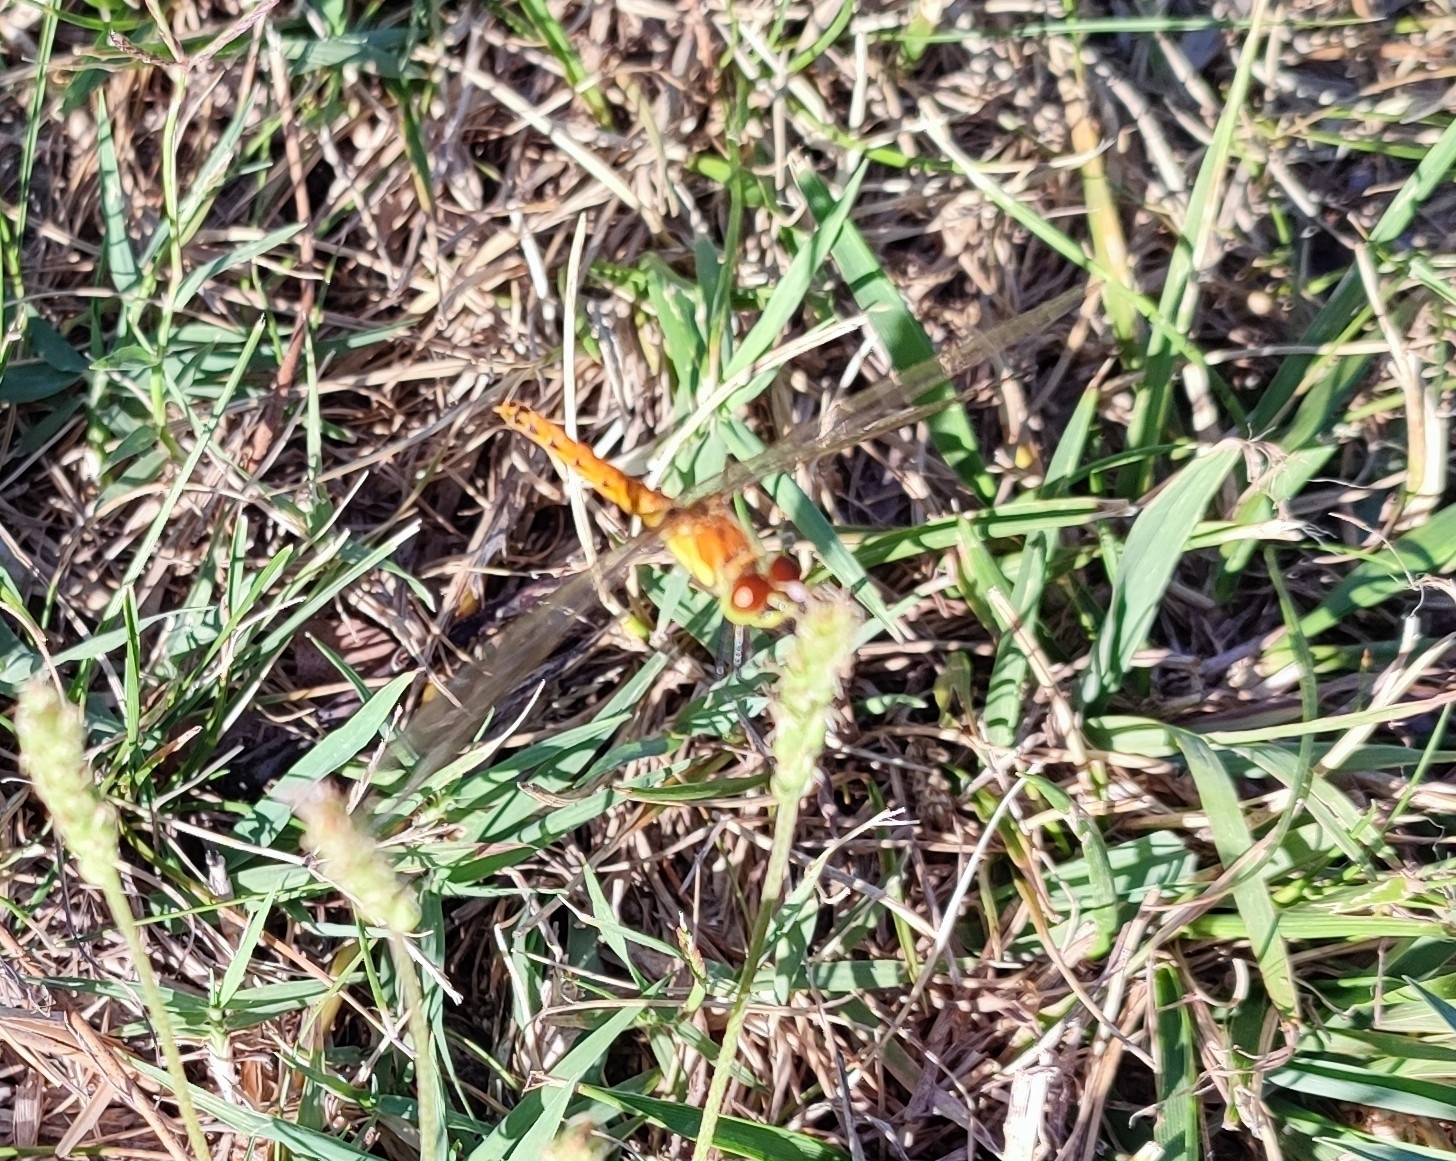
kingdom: Animalia
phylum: Arthropoda
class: Insecta
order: Odonata
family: Libellulidae
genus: Sympetrum
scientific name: Sympetrum depressiusculum
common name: Spotted darter
